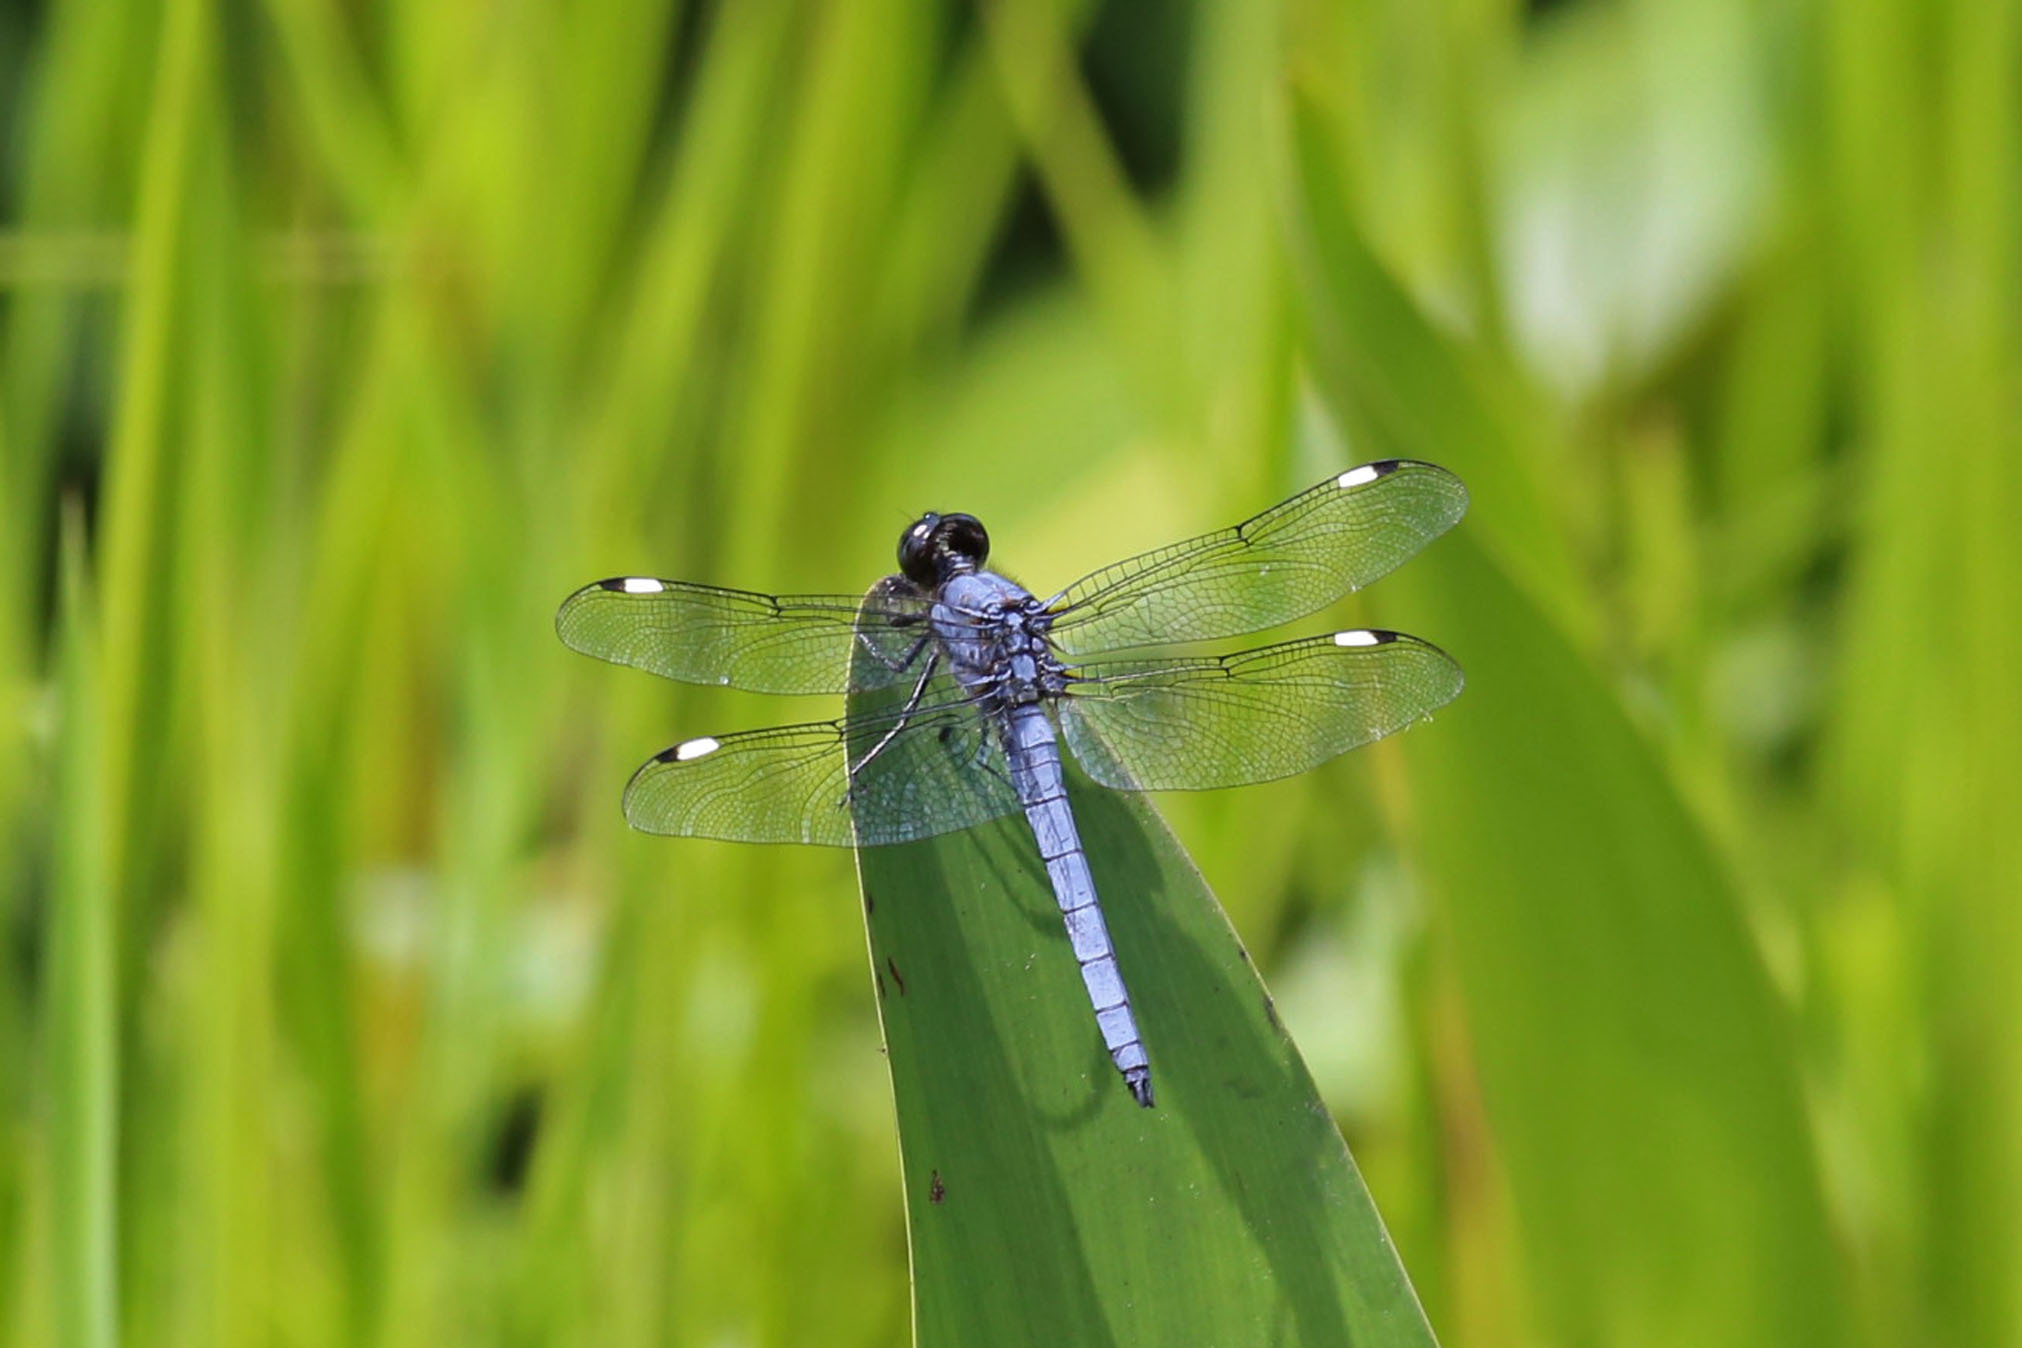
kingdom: Animalia
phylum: Arthropoda
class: Insecta
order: Odonata
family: Libellulidae
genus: Libellula
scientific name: Libellula cyanea
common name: Spangled skimmer
